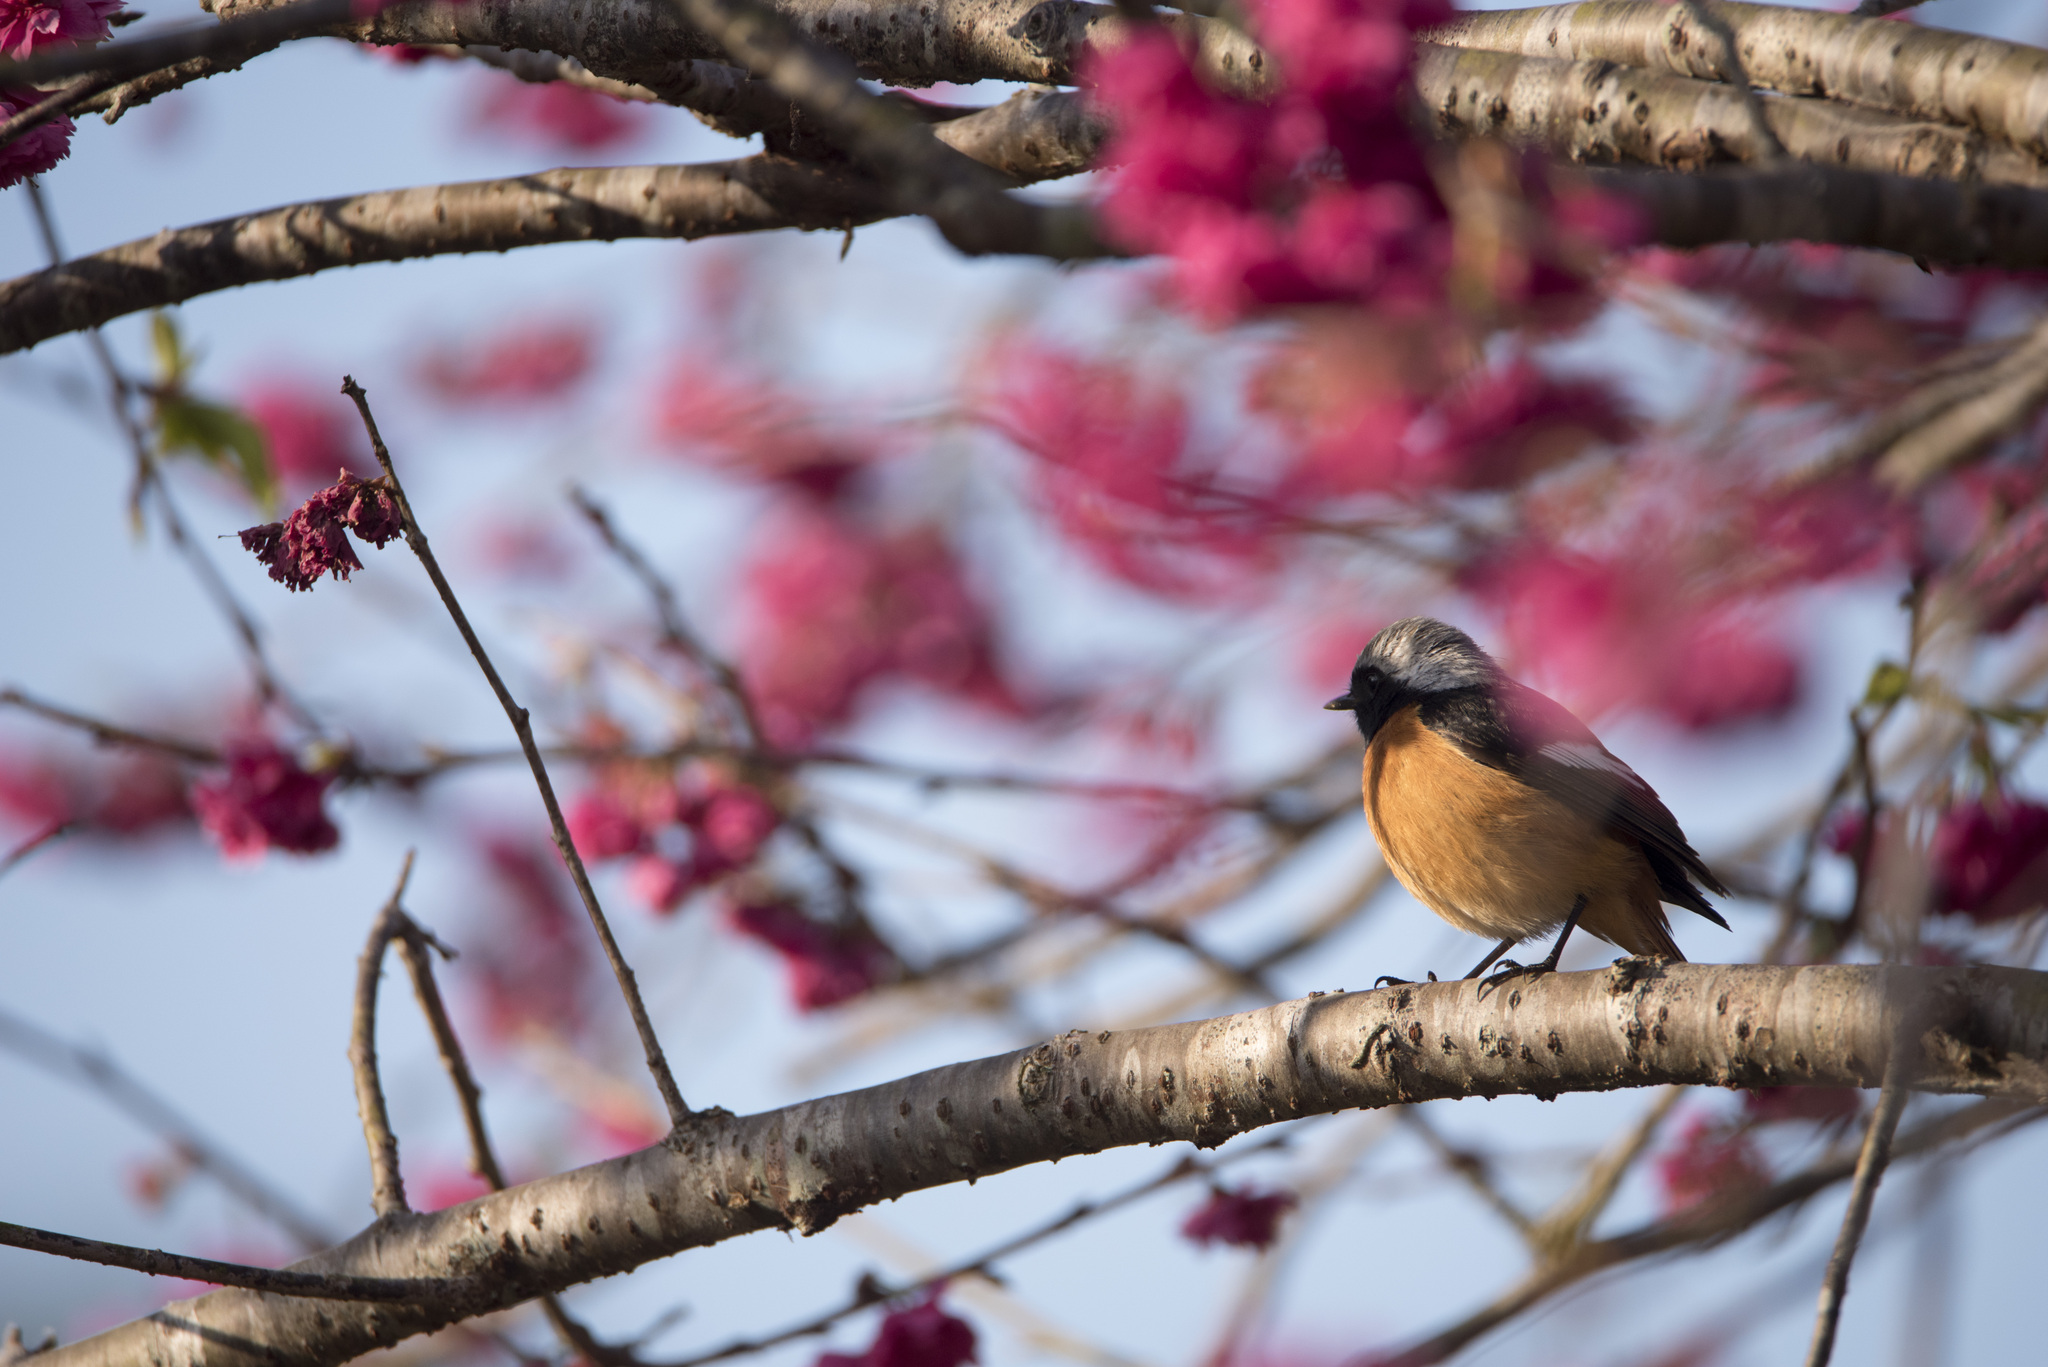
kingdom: Animalia
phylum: Chordata
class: Aves
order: Passeriformes
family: Muscicapidae
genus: Phoenicurus
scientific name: Phoenicurus auroreus
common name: Daurian redstart
